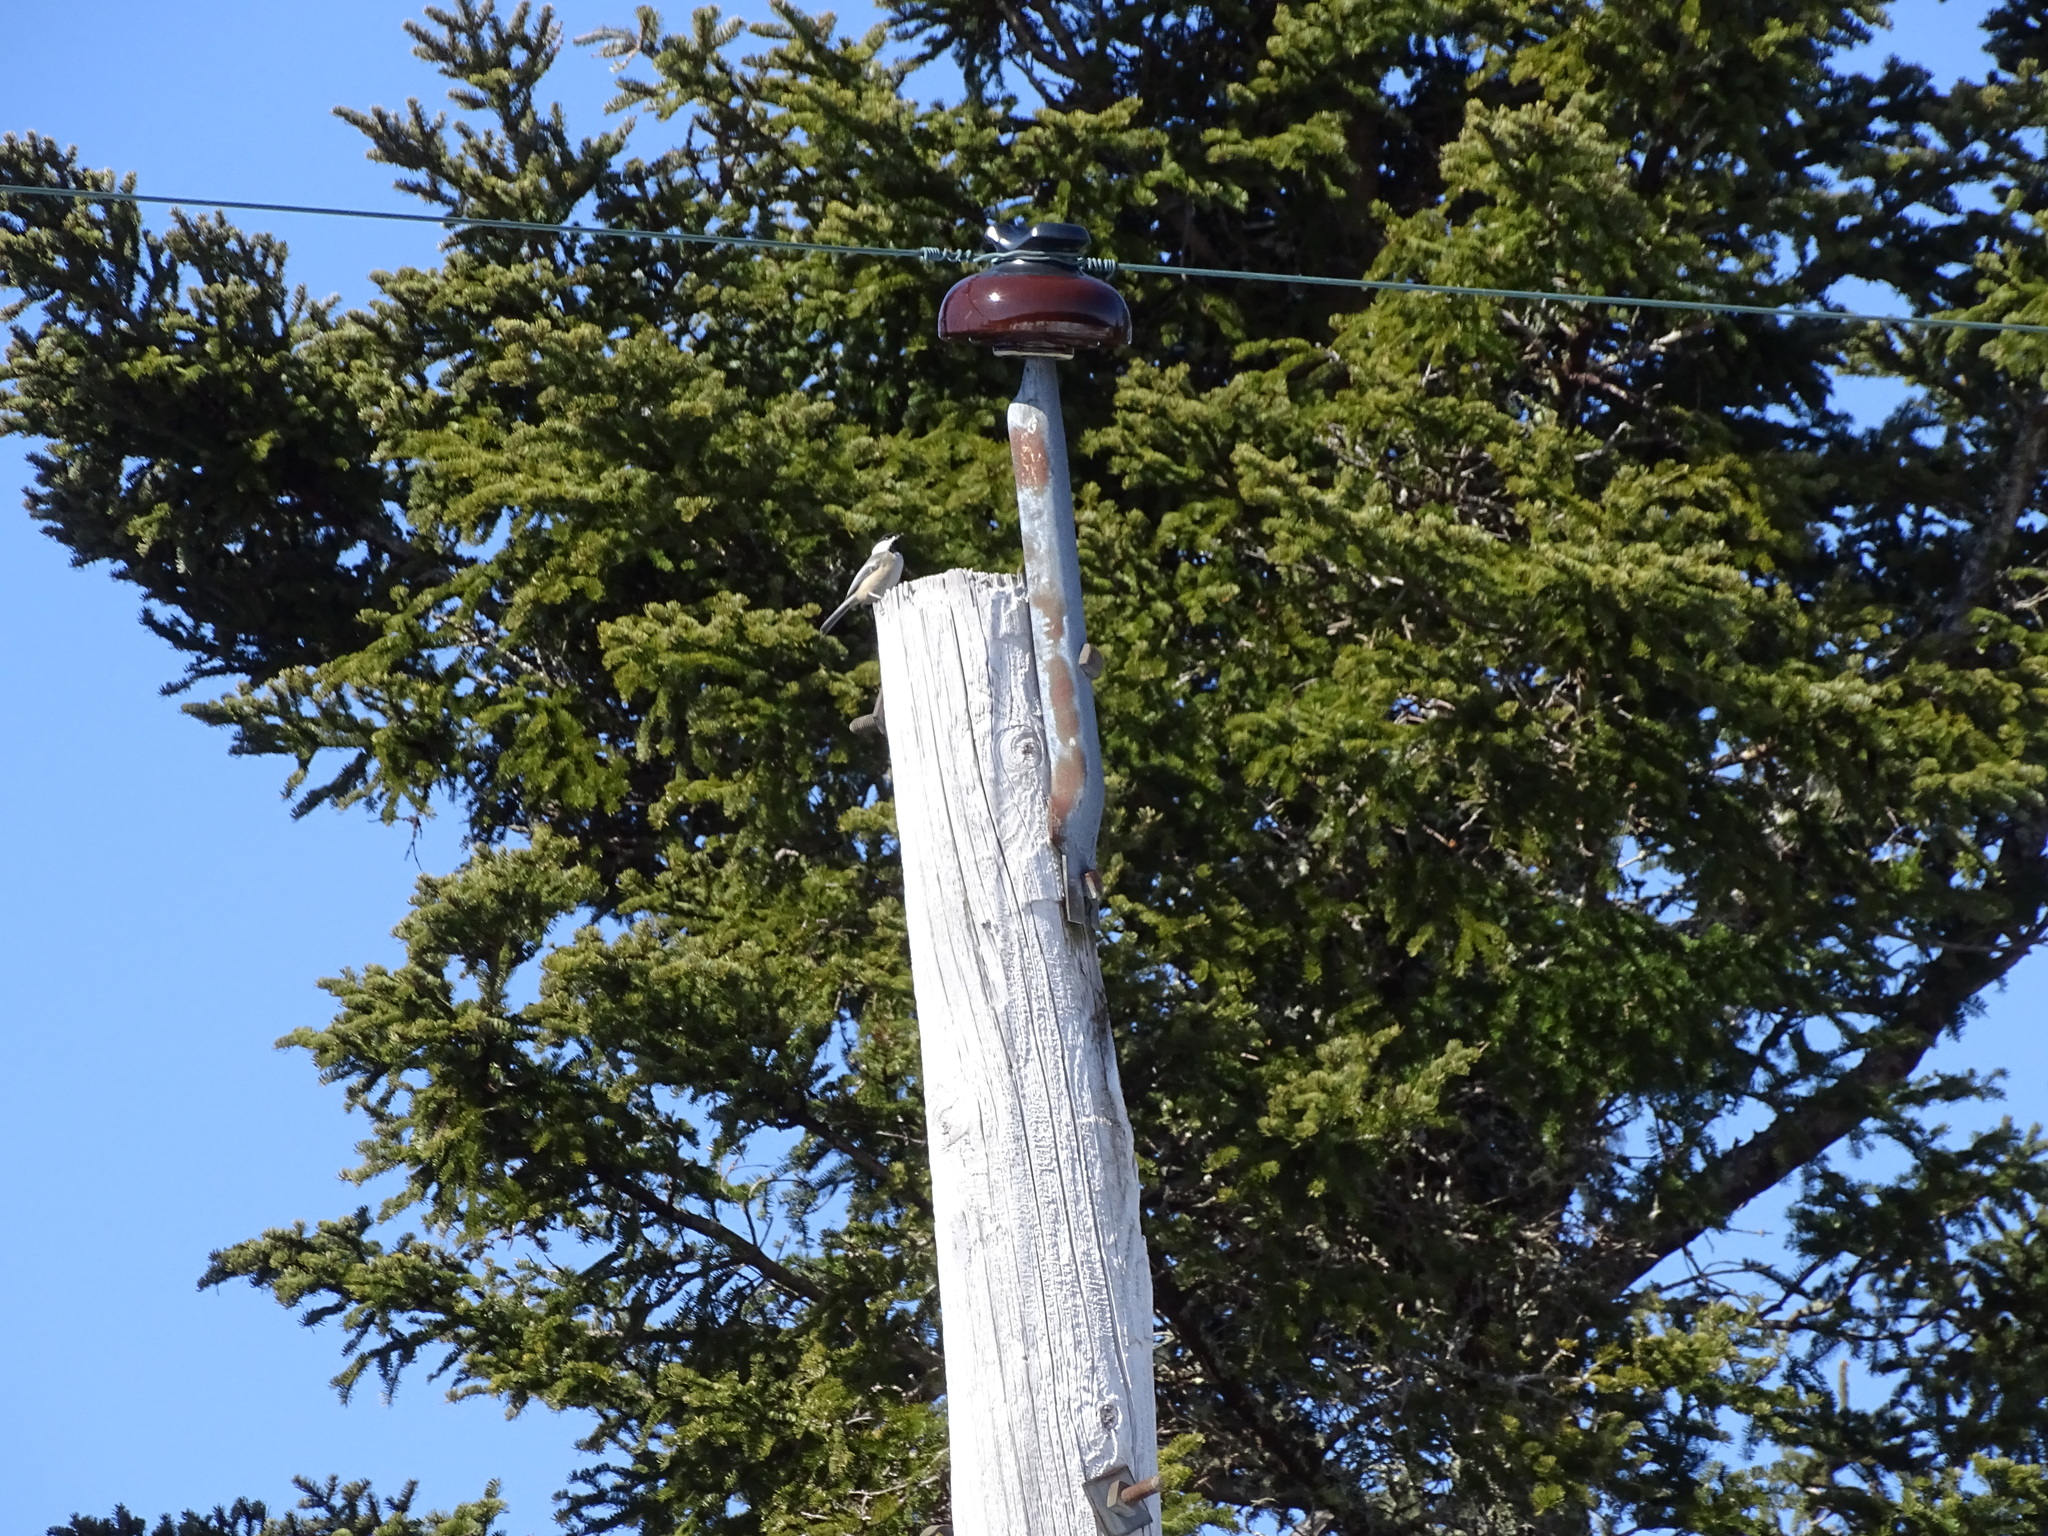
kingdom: Animalia
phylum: Chordata
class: Aves
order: Passeriformes
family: Paridae
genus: Poecile
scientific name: Poecile atricapillus
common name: Black-capped chickadee
